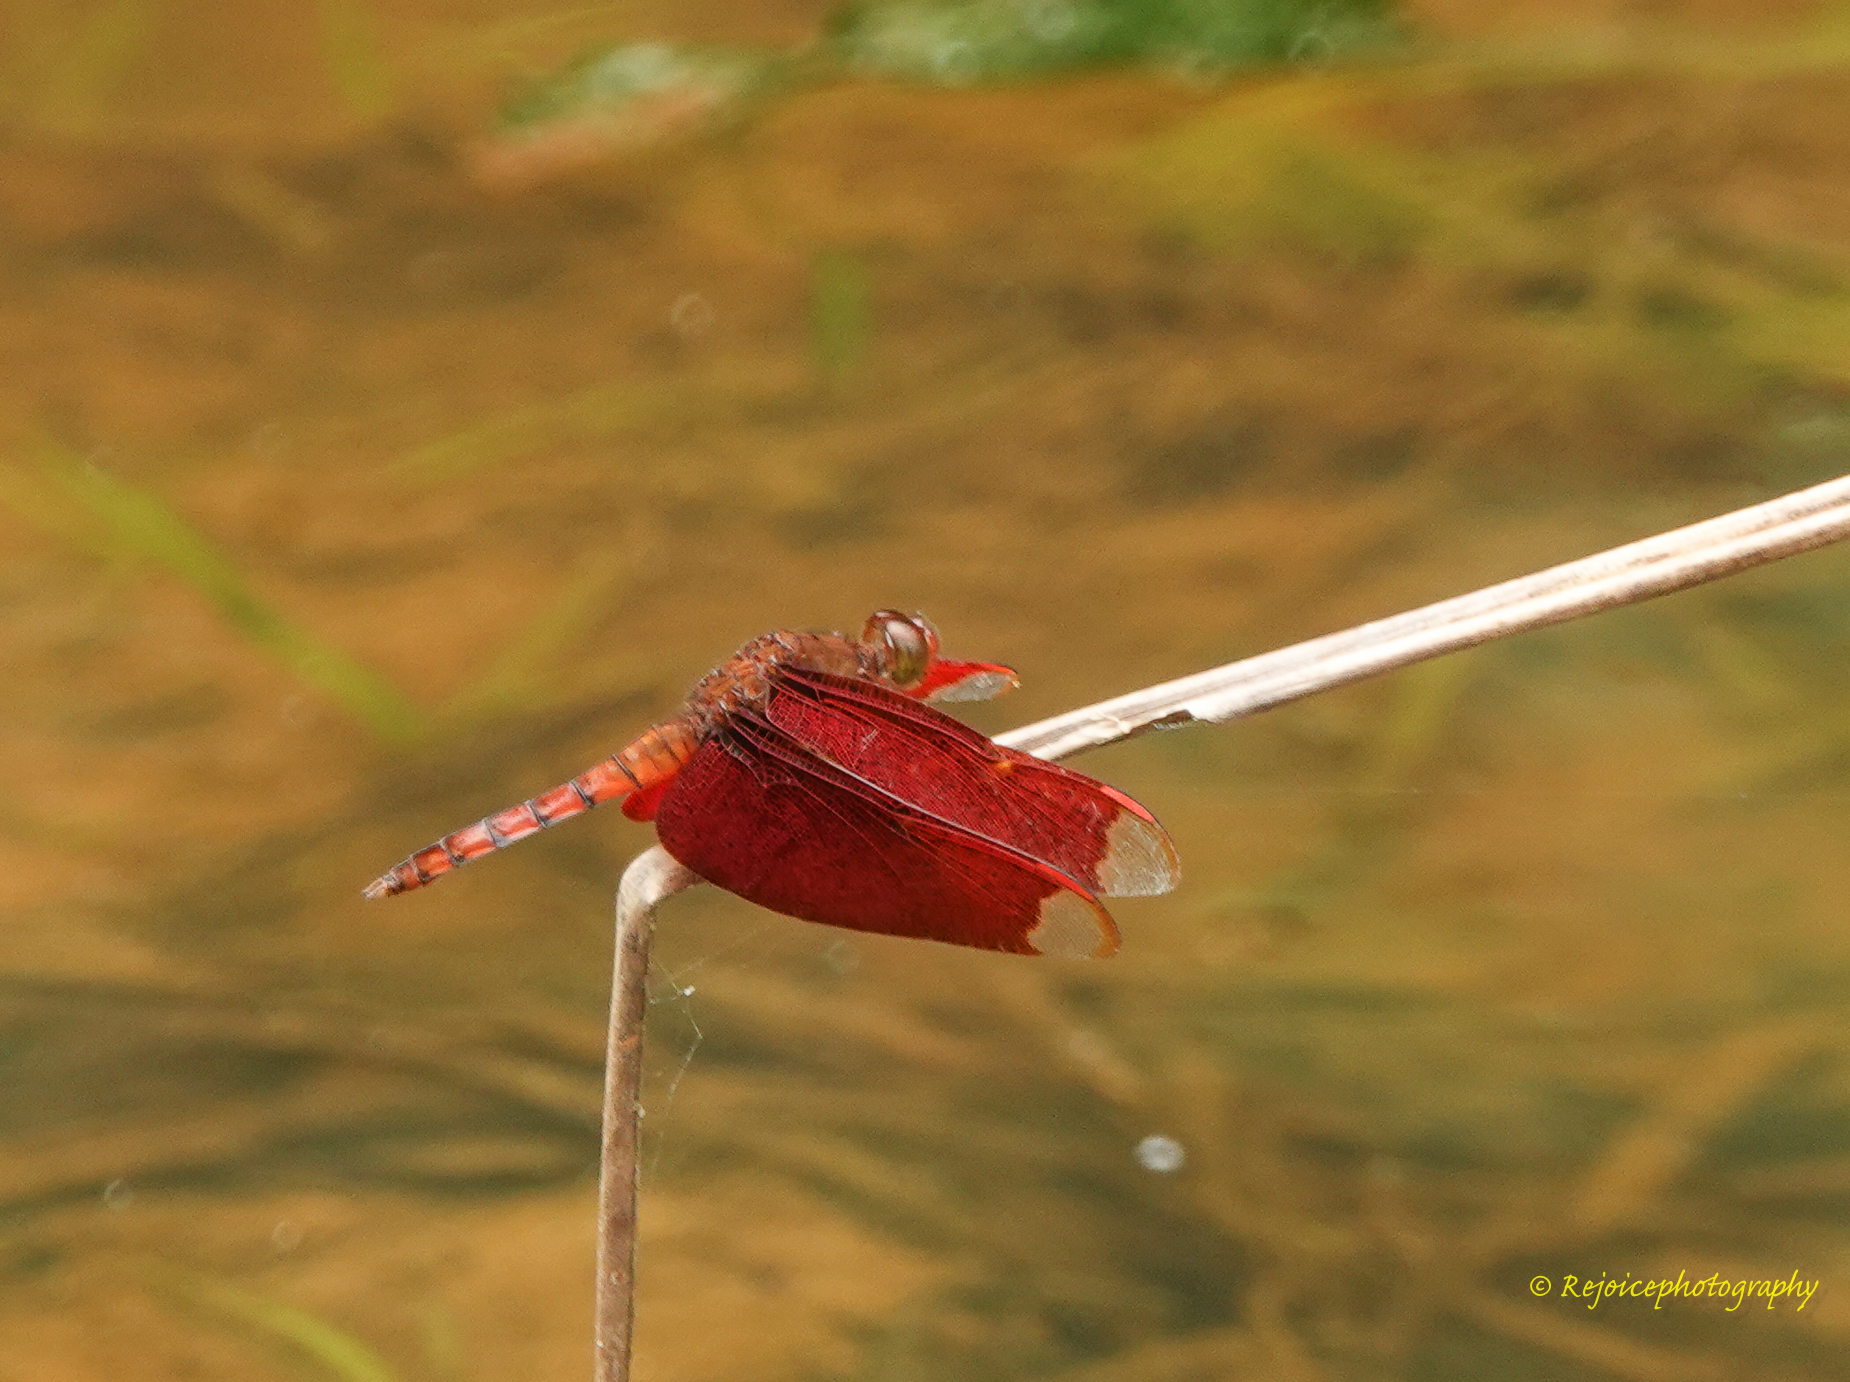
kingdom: Animalia
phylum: Arthropoda
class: Insecta
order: Odonata
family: Libellulidae
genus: Neurothemis
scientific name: Neurothemis fulvia
